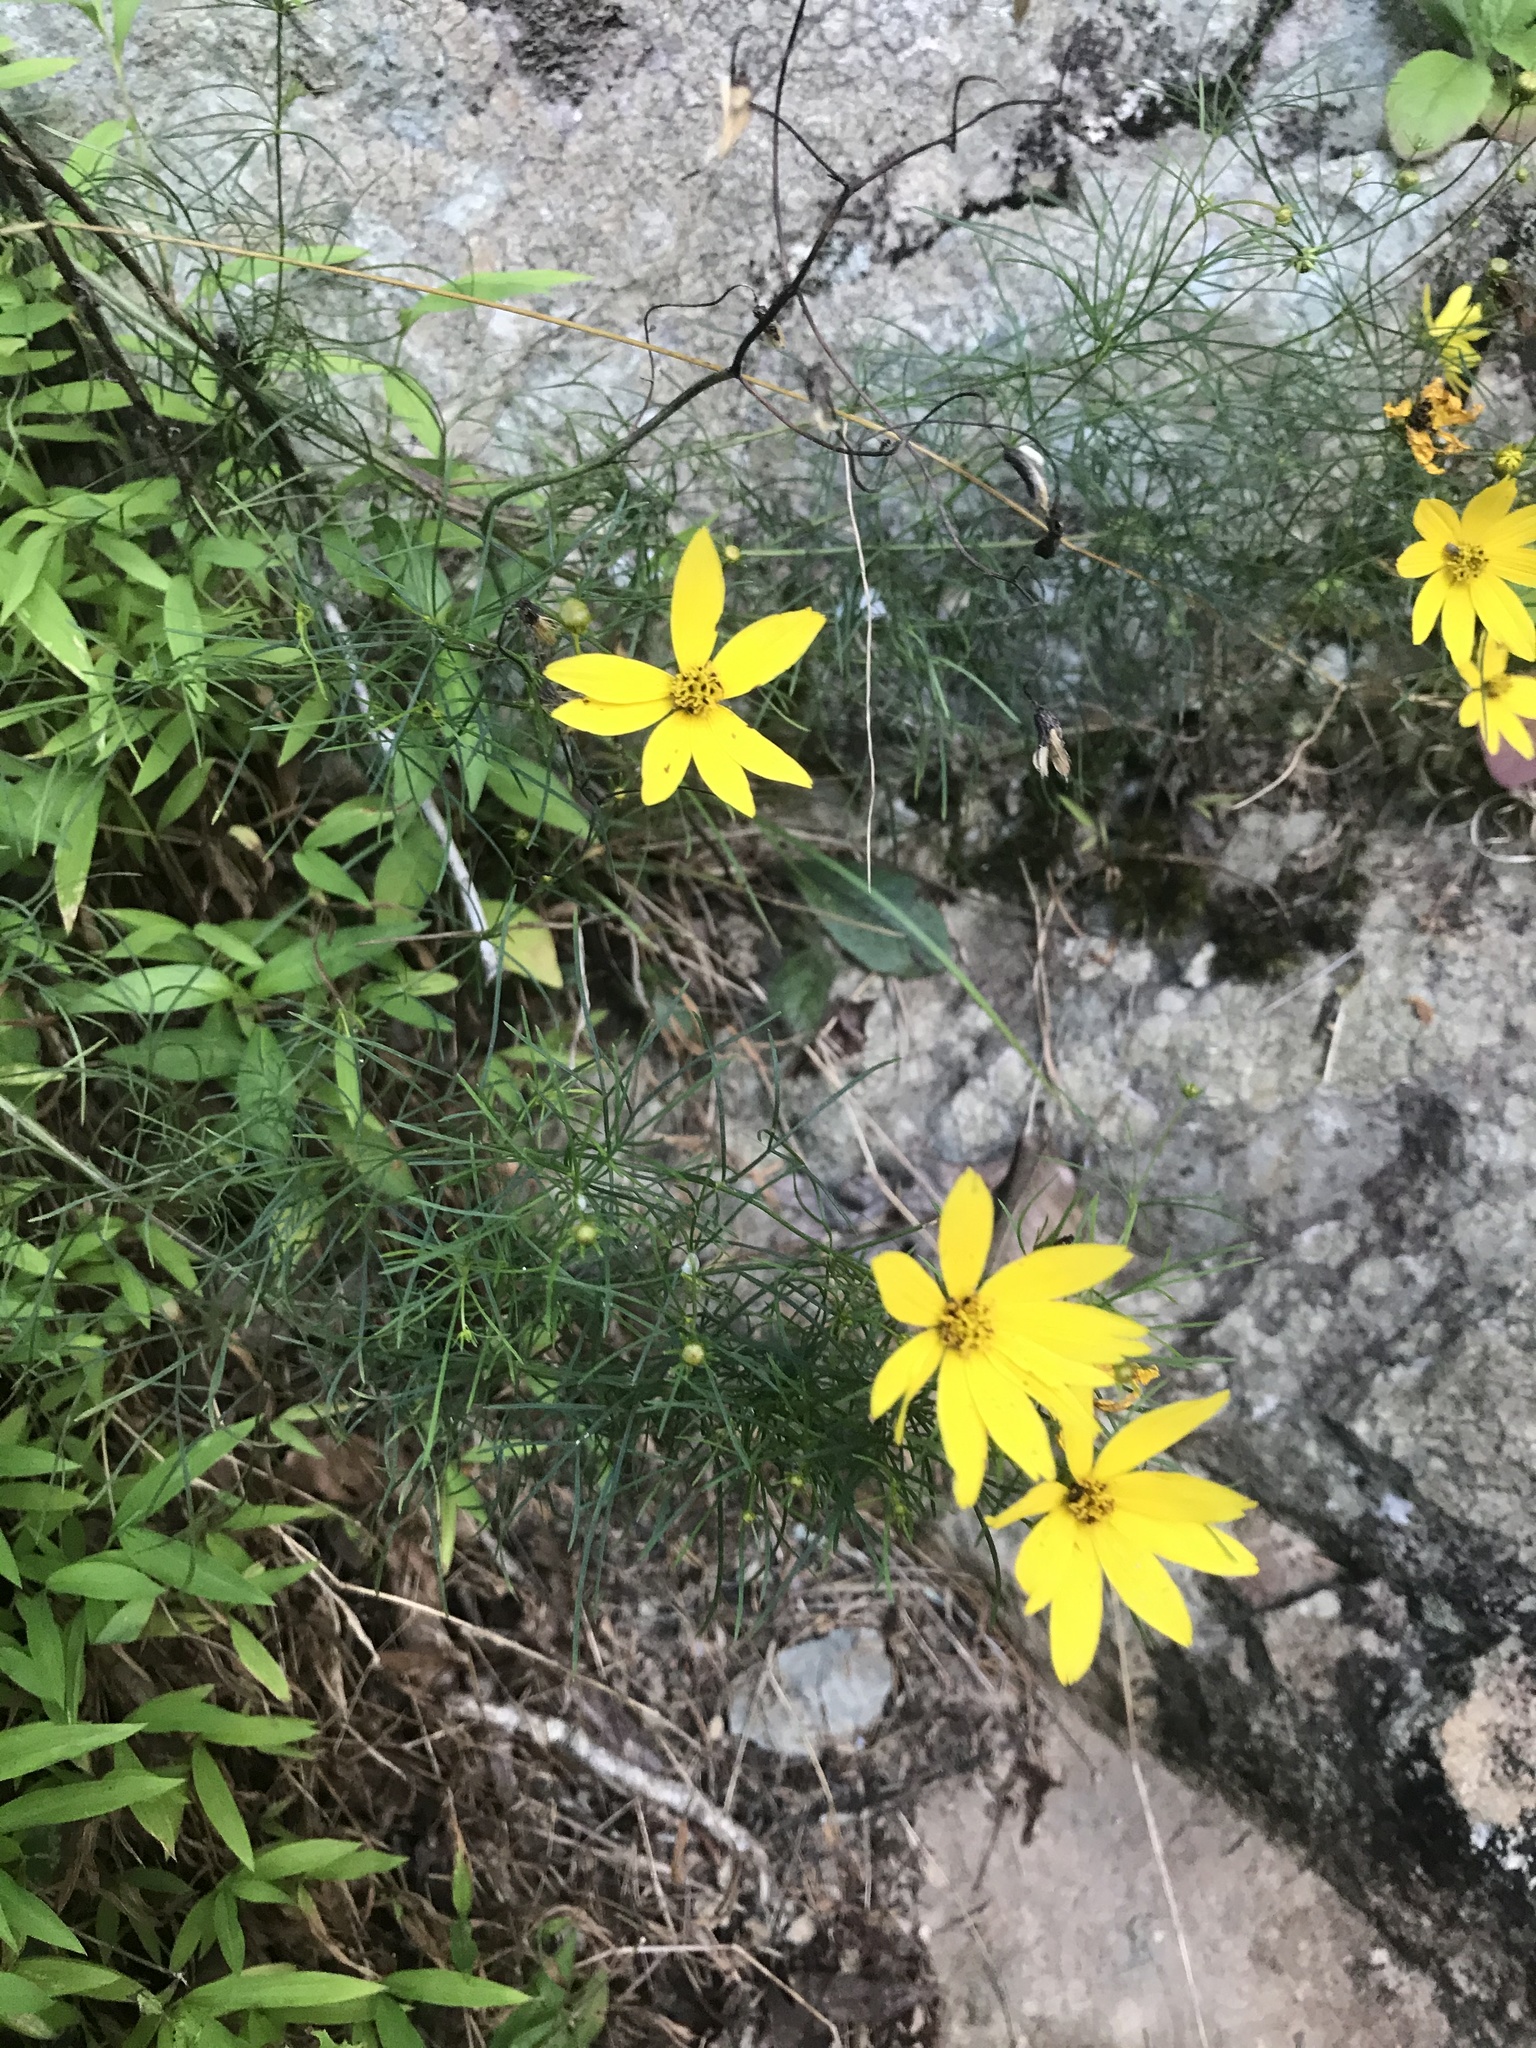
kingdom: Plantae
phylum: Tracheophyta
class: Magnoliopsida
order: Asterales
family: Asteraceae
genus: Coreopsis
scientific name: Coreopsis verticillata
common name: Whorled tickseed
